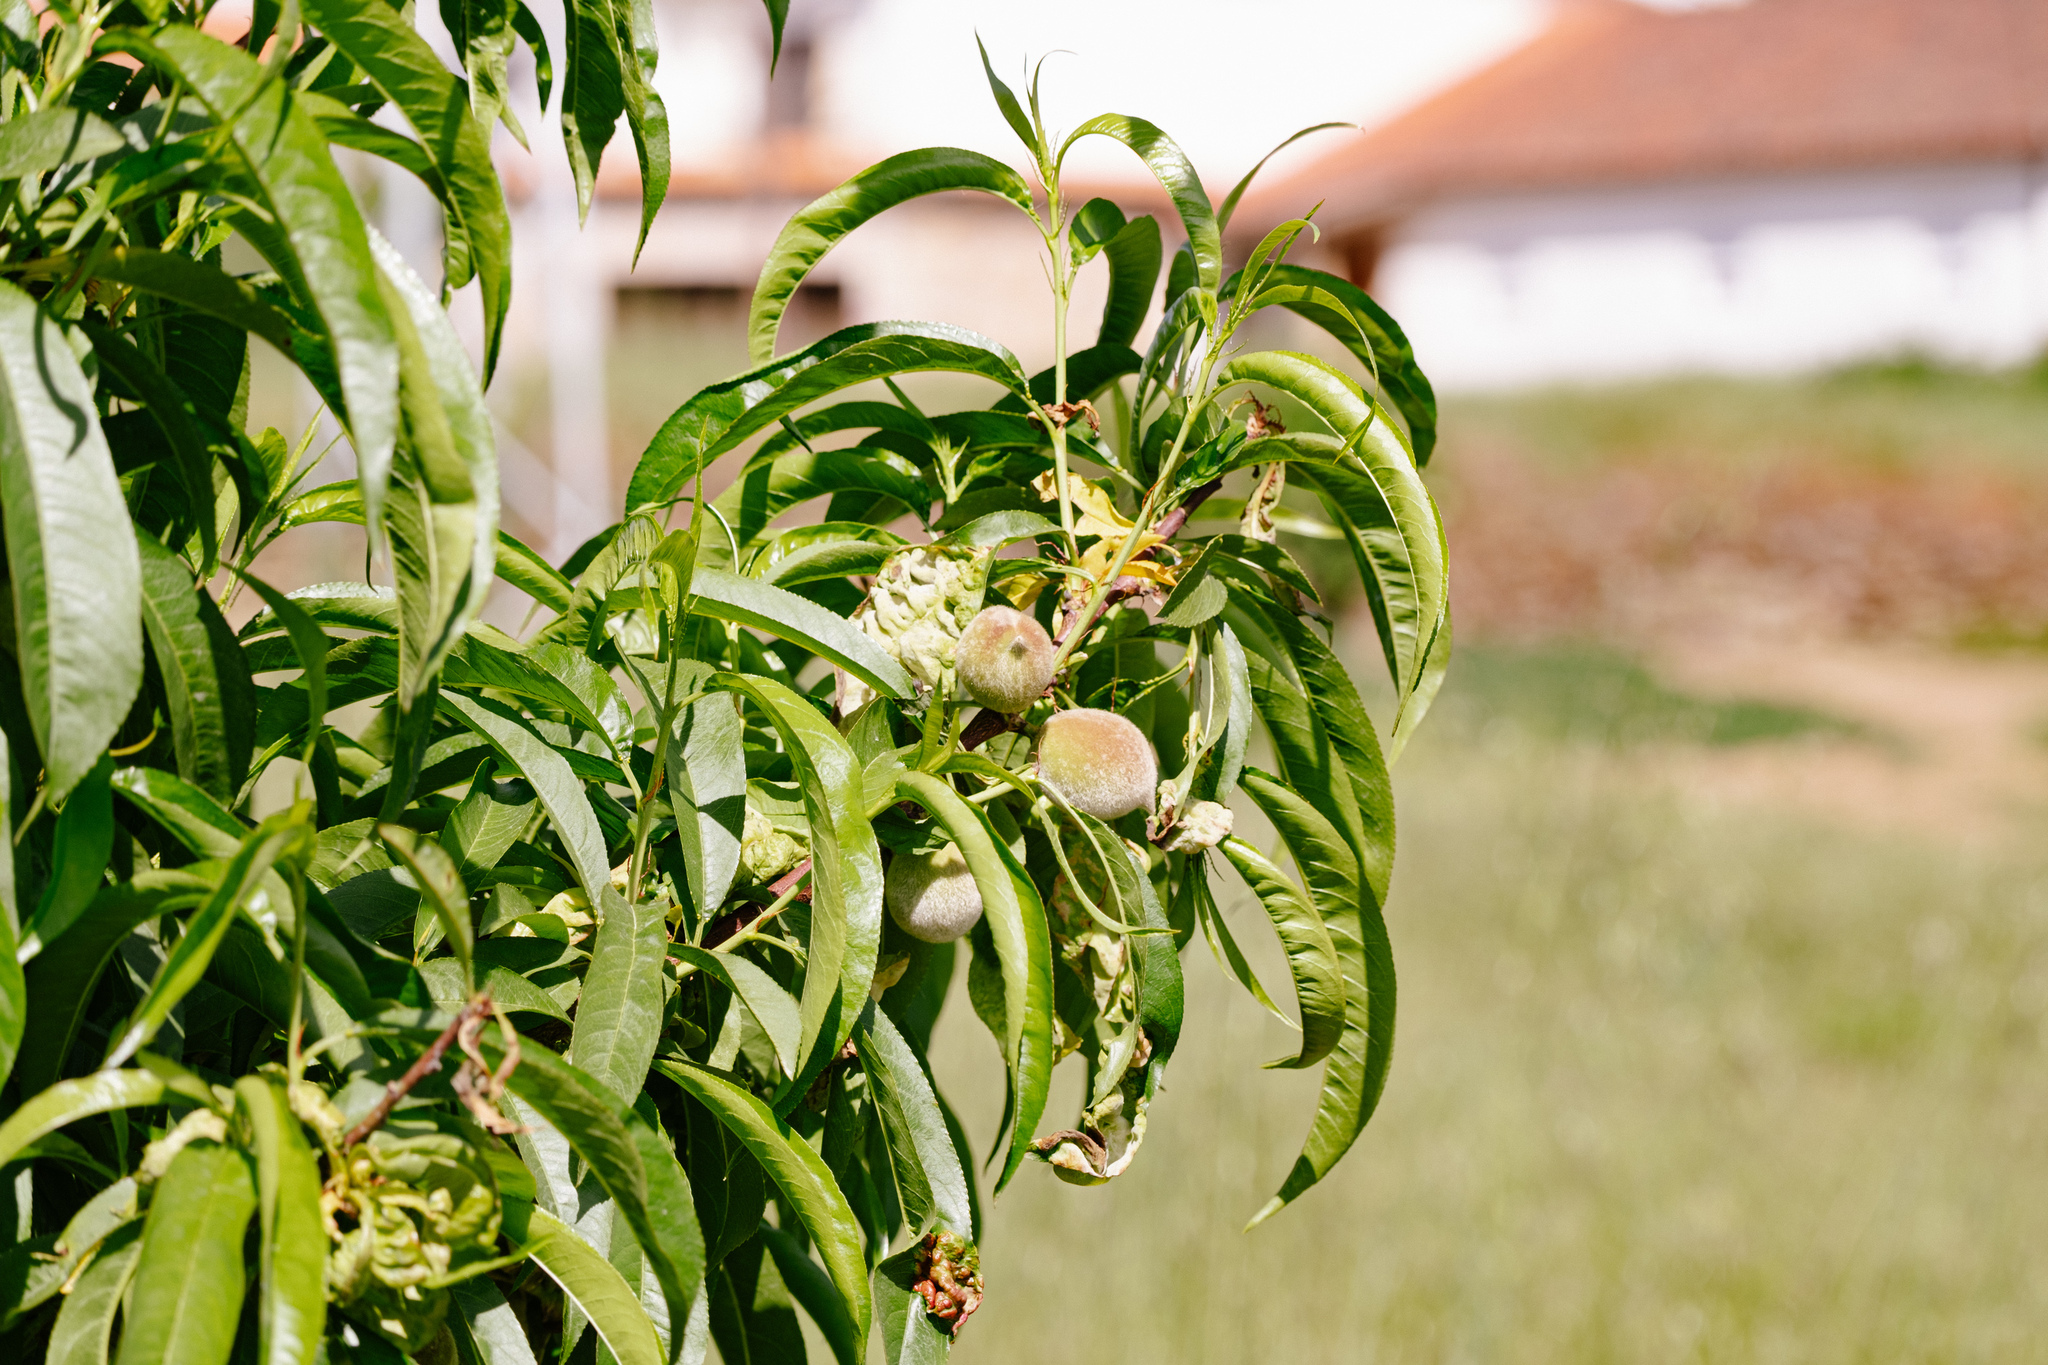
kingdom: Plantae
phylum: Tracheophyta
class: Magnoliopsida
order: Rosales
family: Rosaceae
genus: Prunus
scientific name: Prunus persica
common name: Peach
